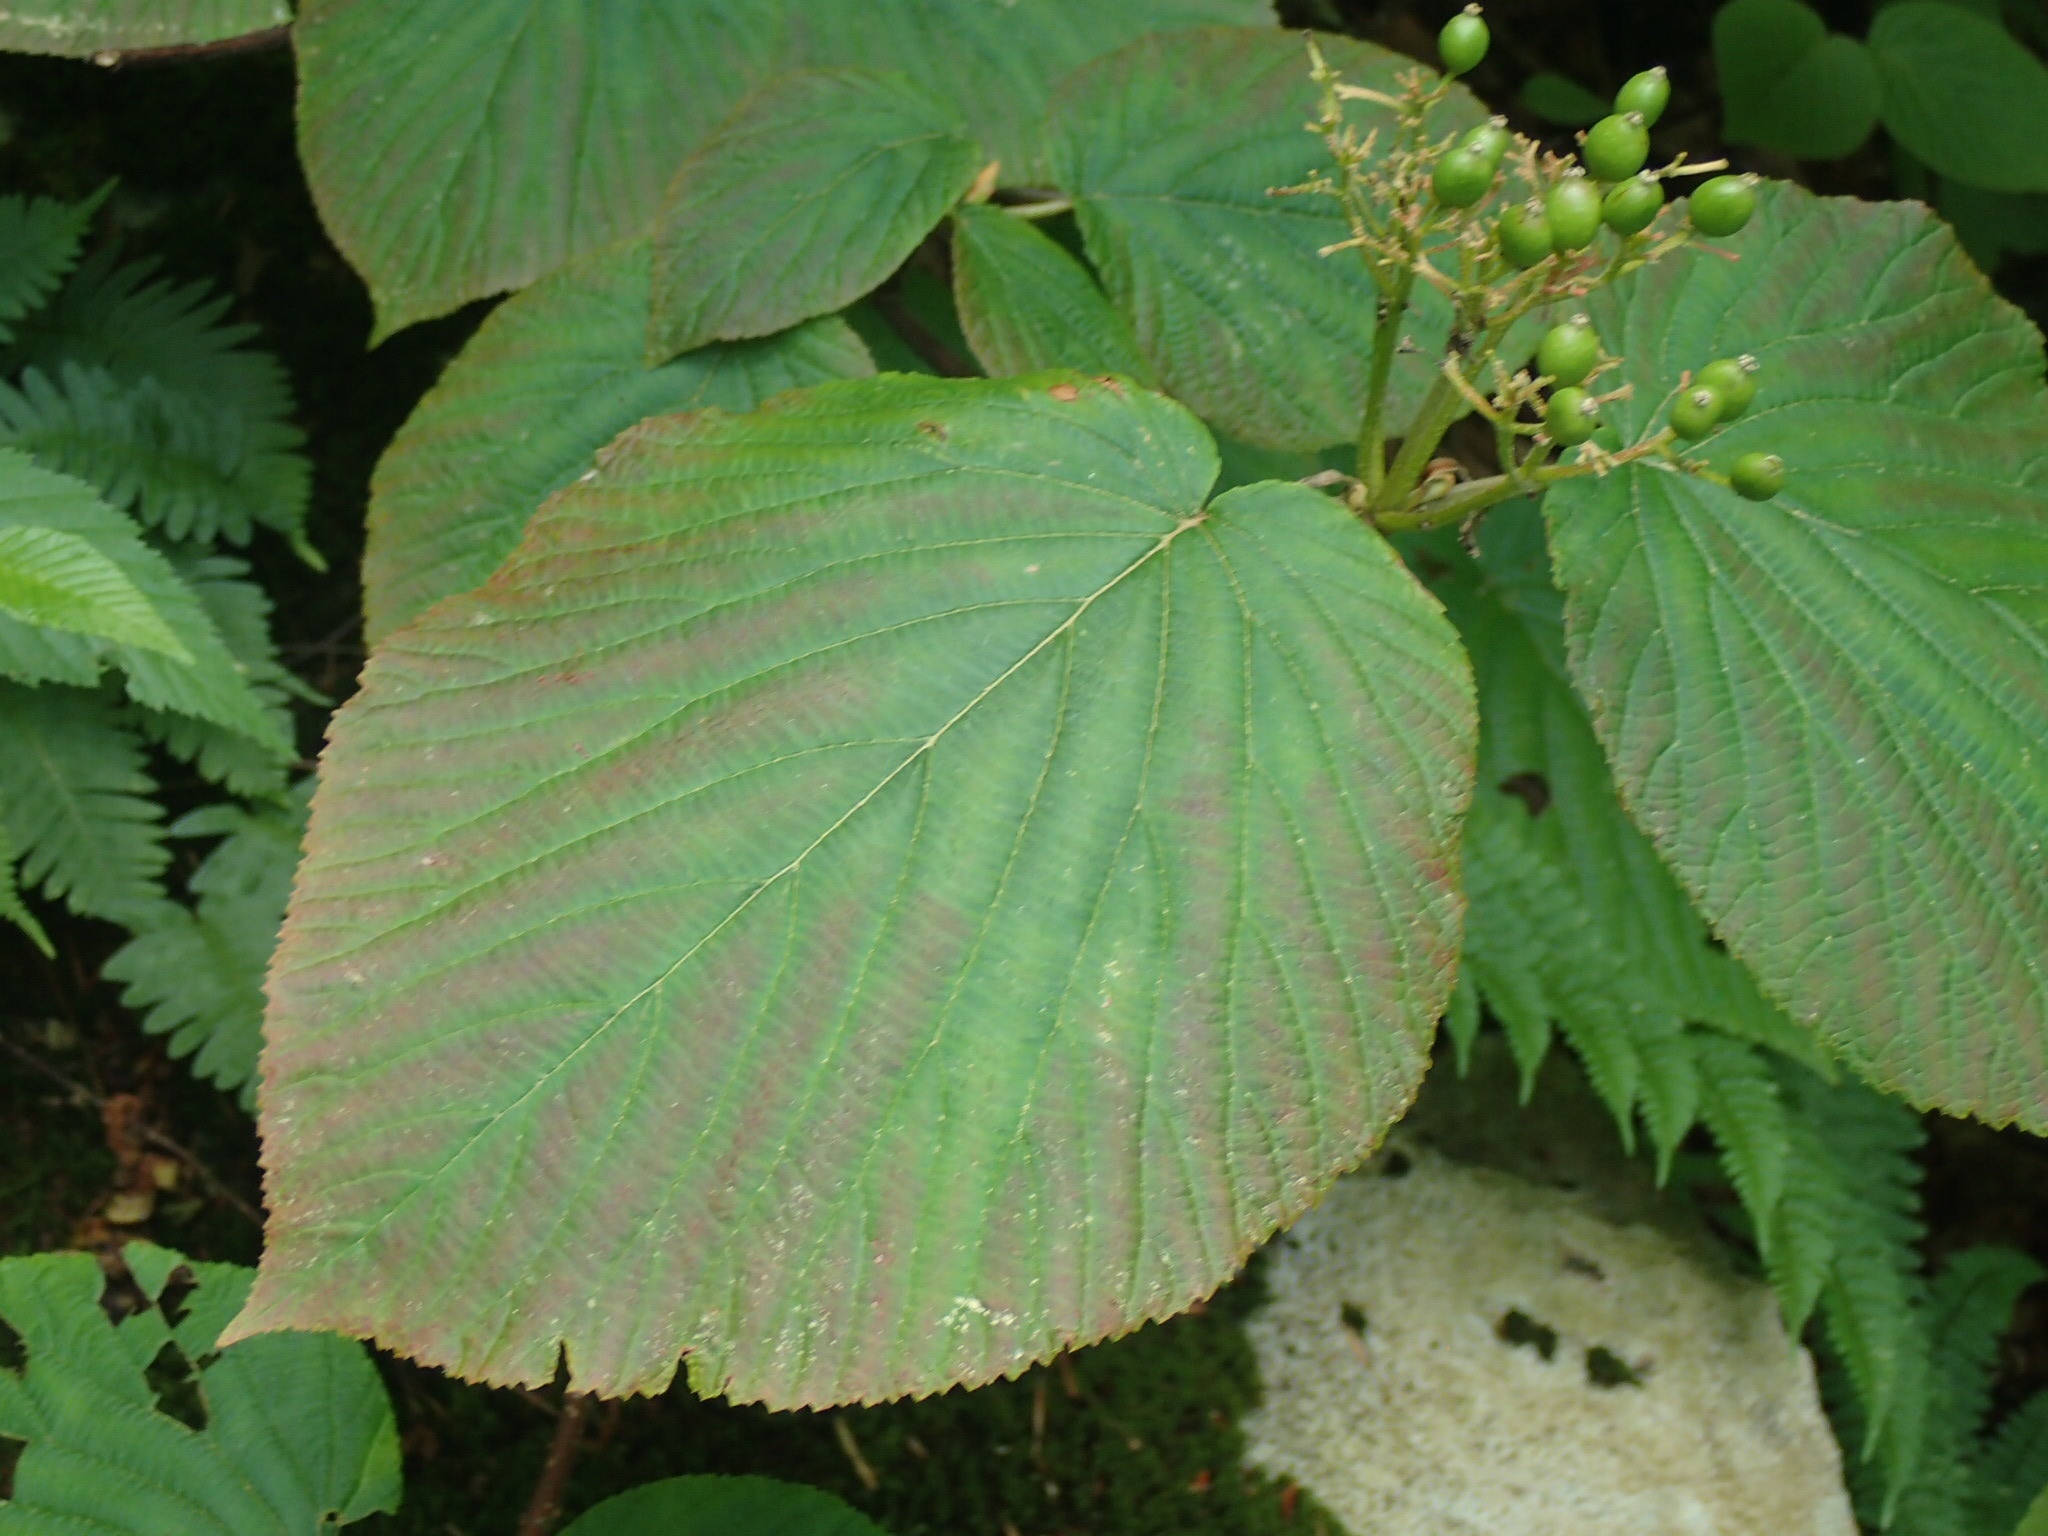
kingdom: Plantae
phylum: Tracheophyta
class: Magnoliopsida
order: Dipsacales
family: Viburnaceae
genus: Viburnum
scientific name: Viburnum lantanoides
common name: Hobblebush
